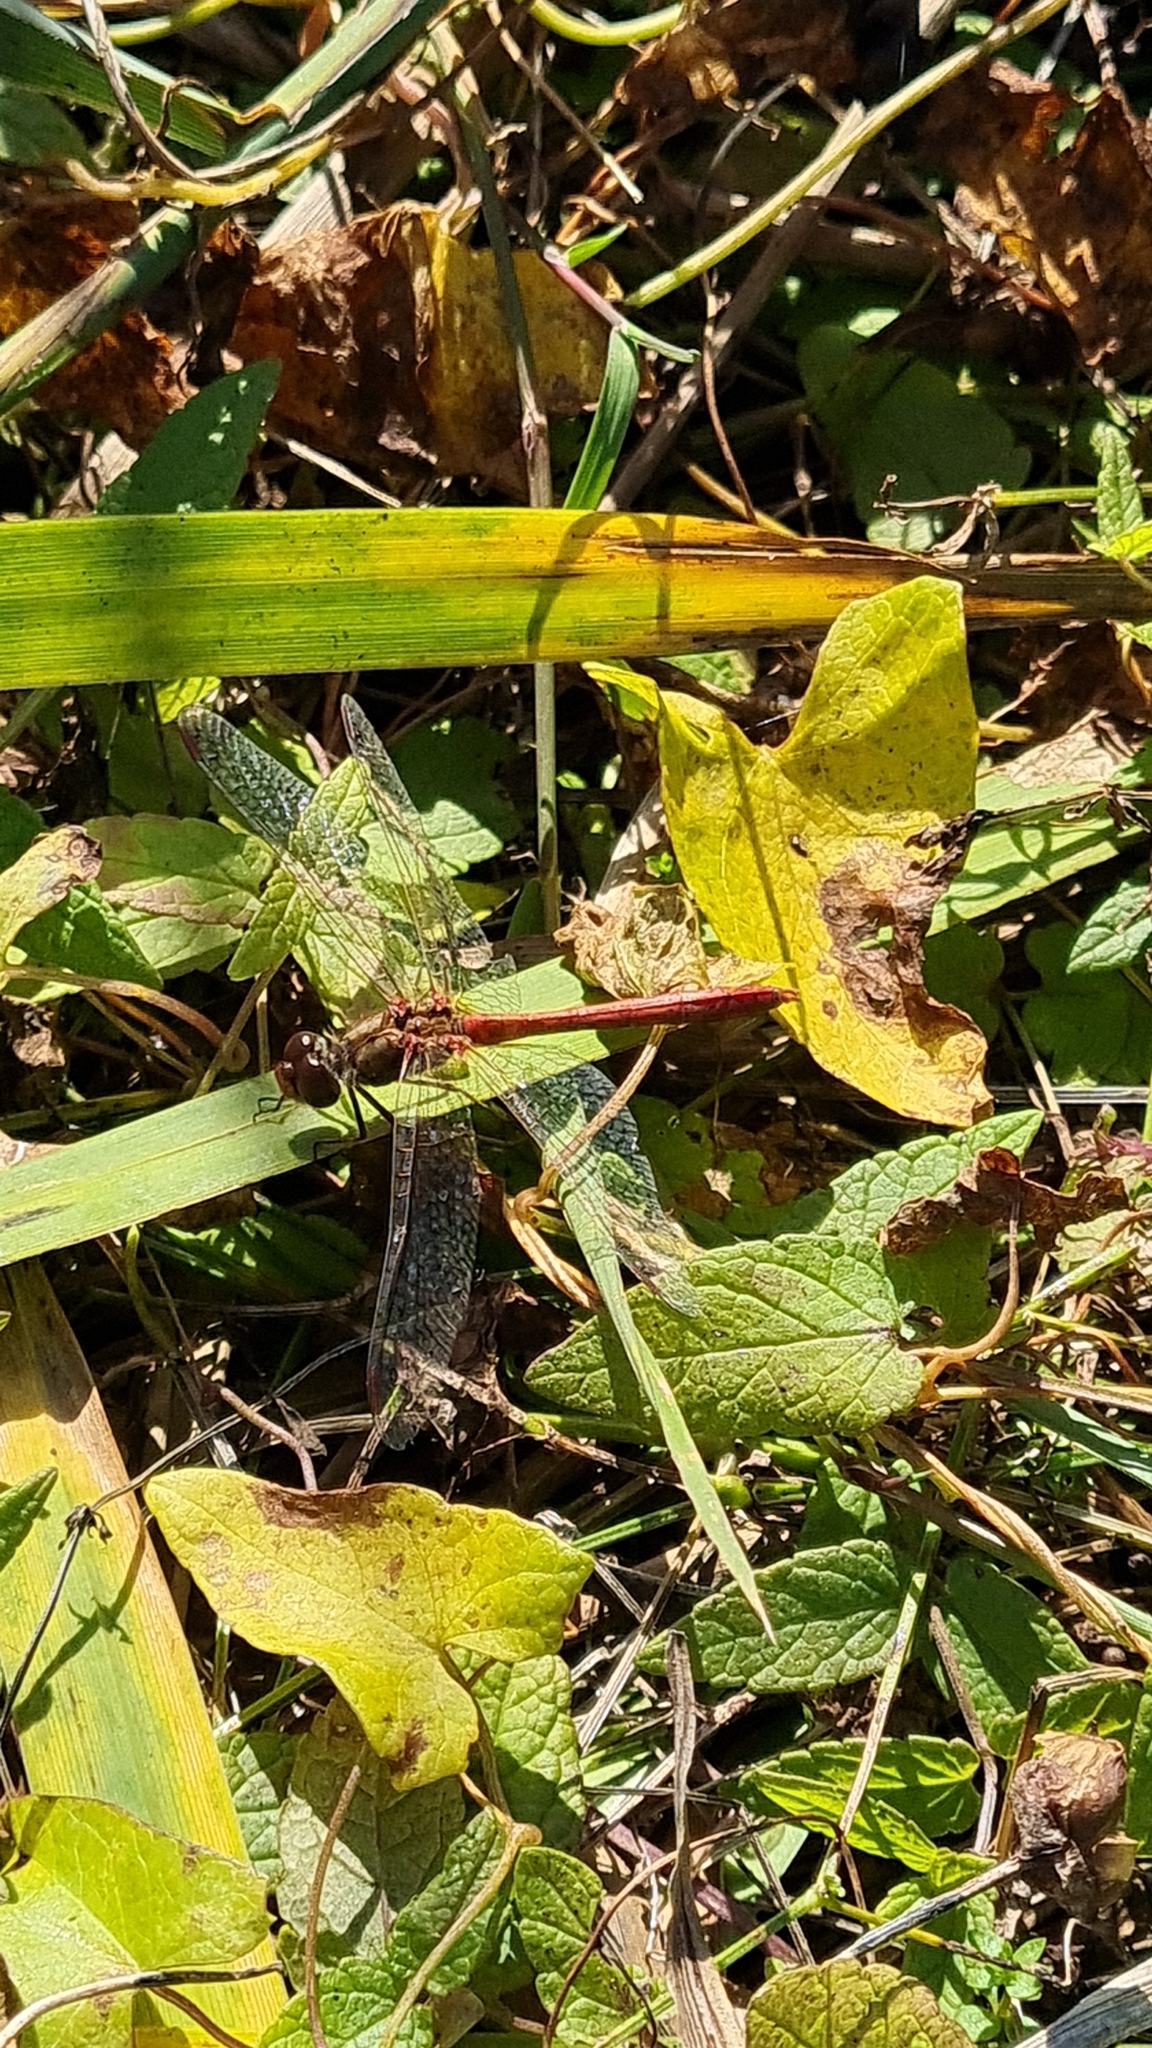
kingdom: Animalia
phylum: Arthropoda
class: Insecta
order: Odonata
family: Libellulidae
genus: Sympetrum
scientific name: Sympetrum meridionale
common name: Southern darter
